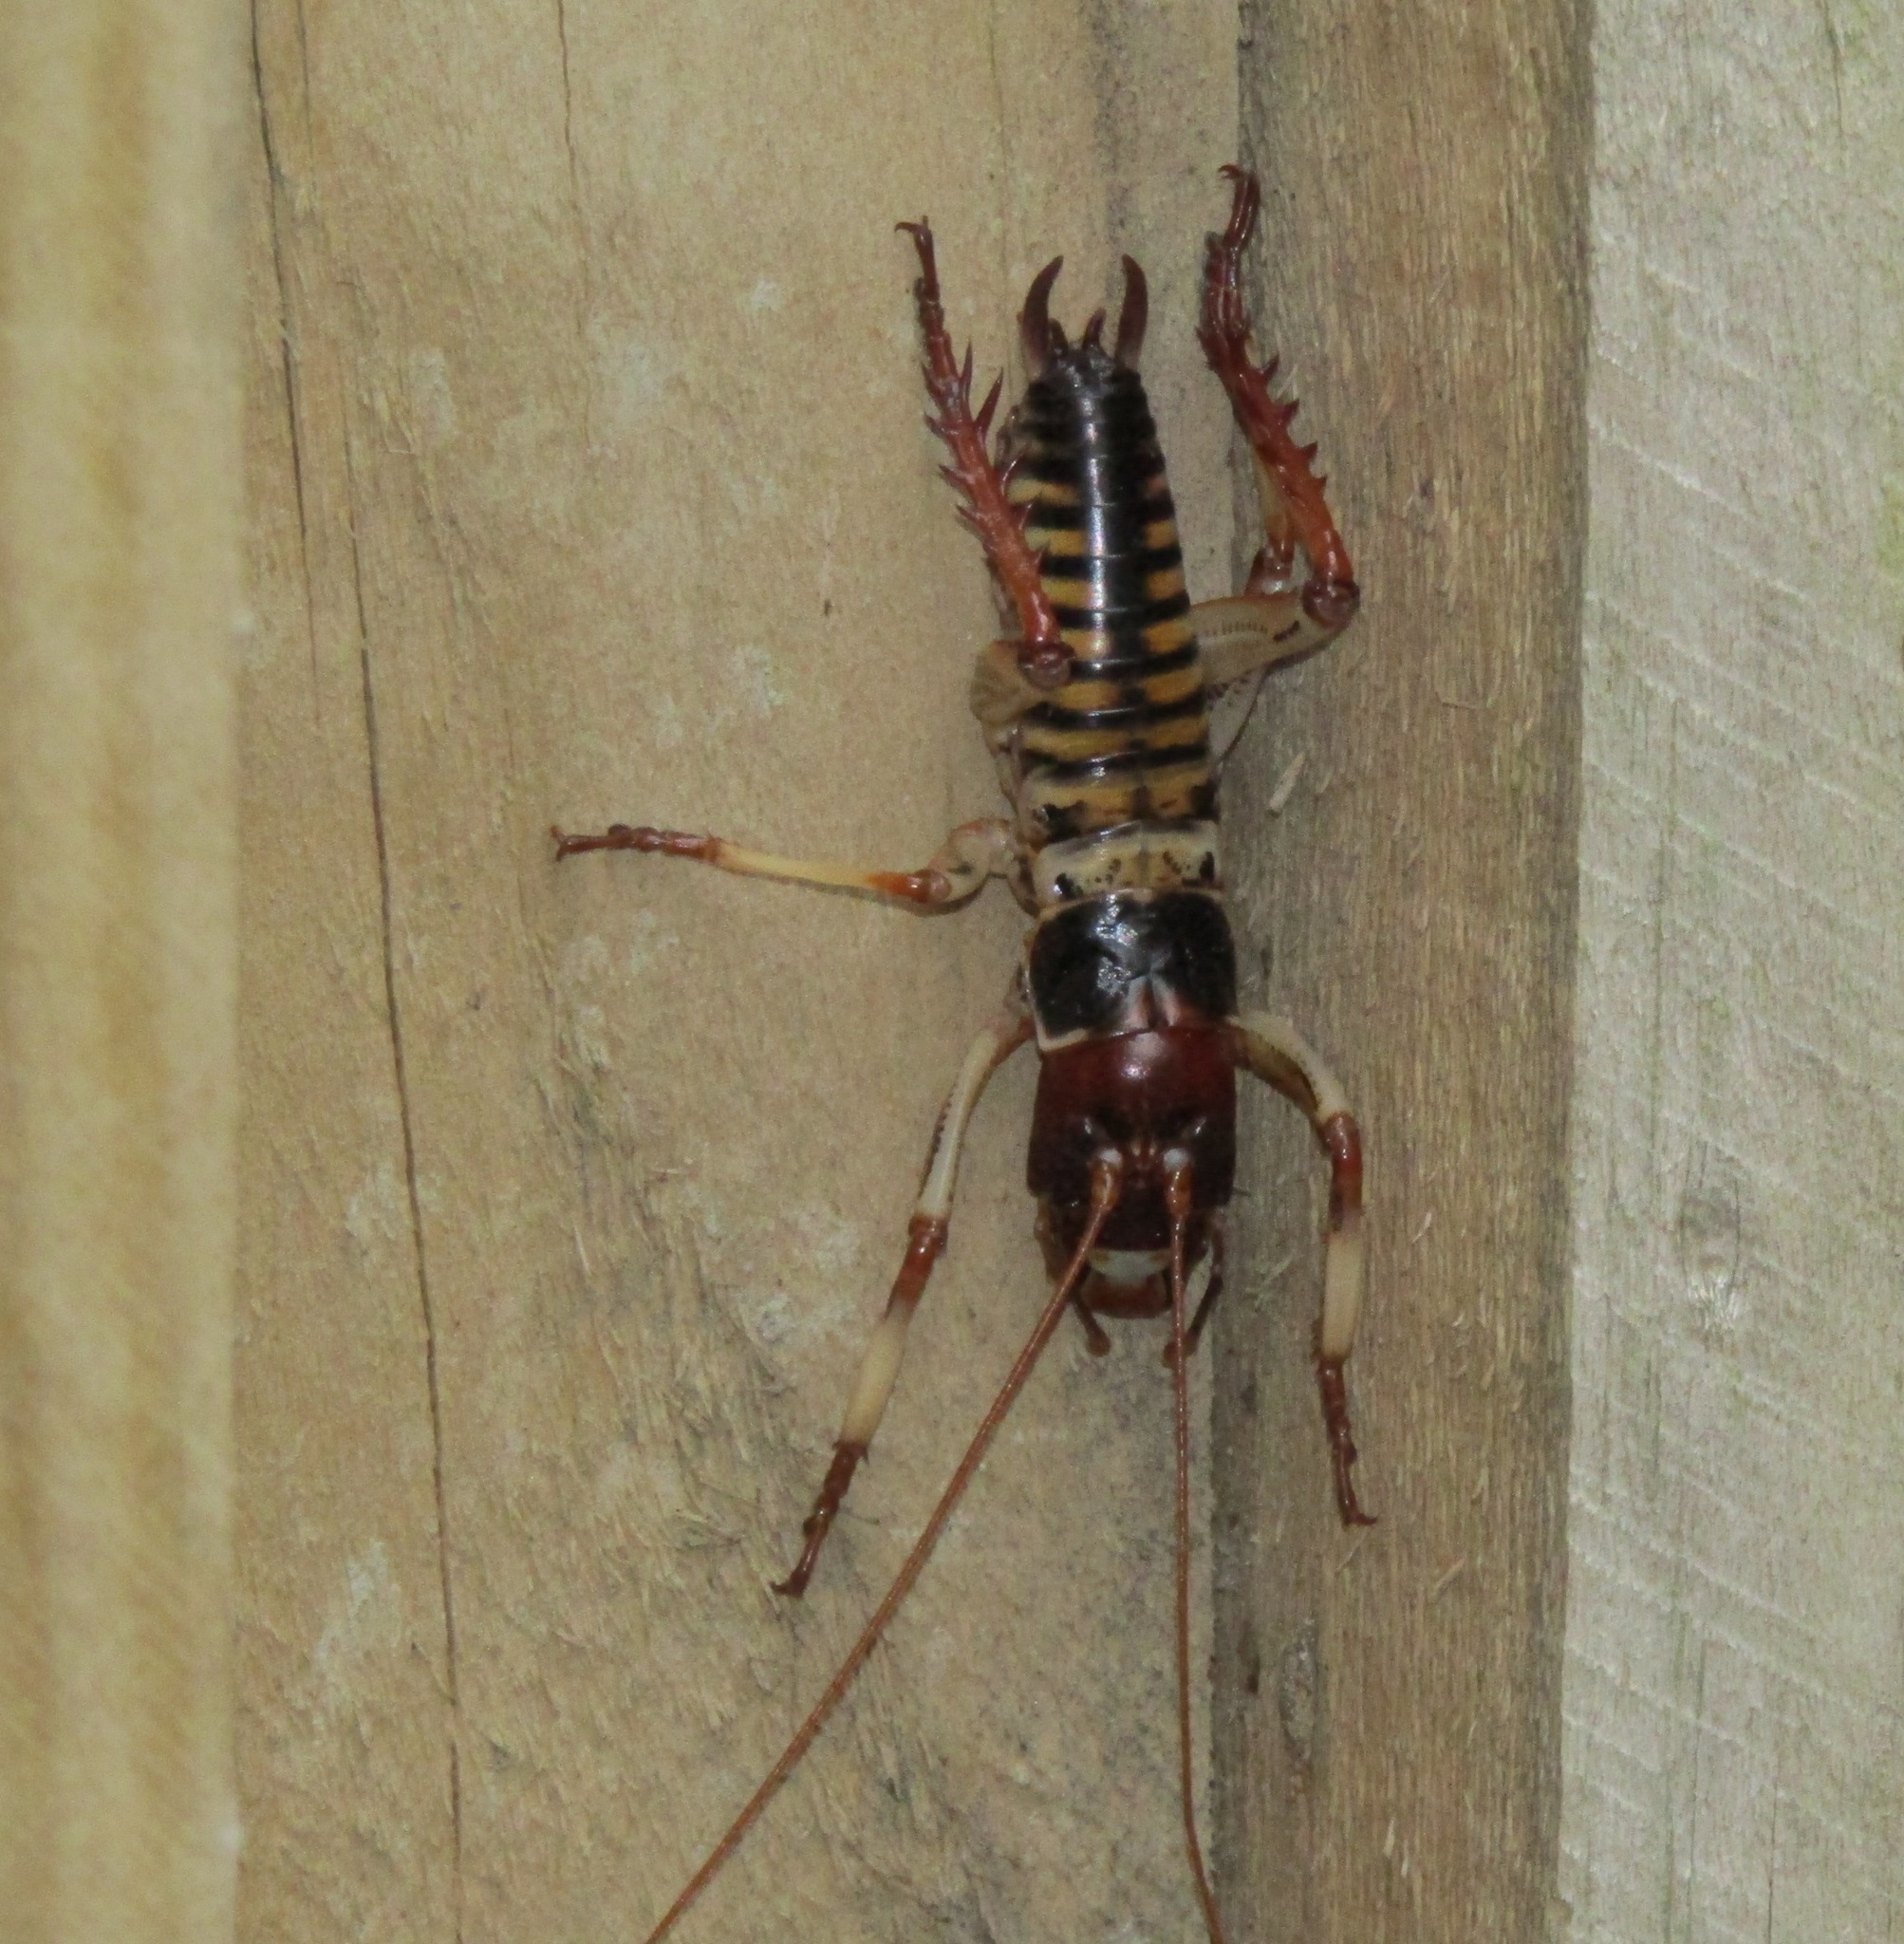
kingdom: Animalia
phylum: Arthropoda
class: Insecta
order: Orthoptera
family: Anostostomatidae
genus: Hemideina
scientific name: Hemideina crassidens
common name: Wellington tree weta
